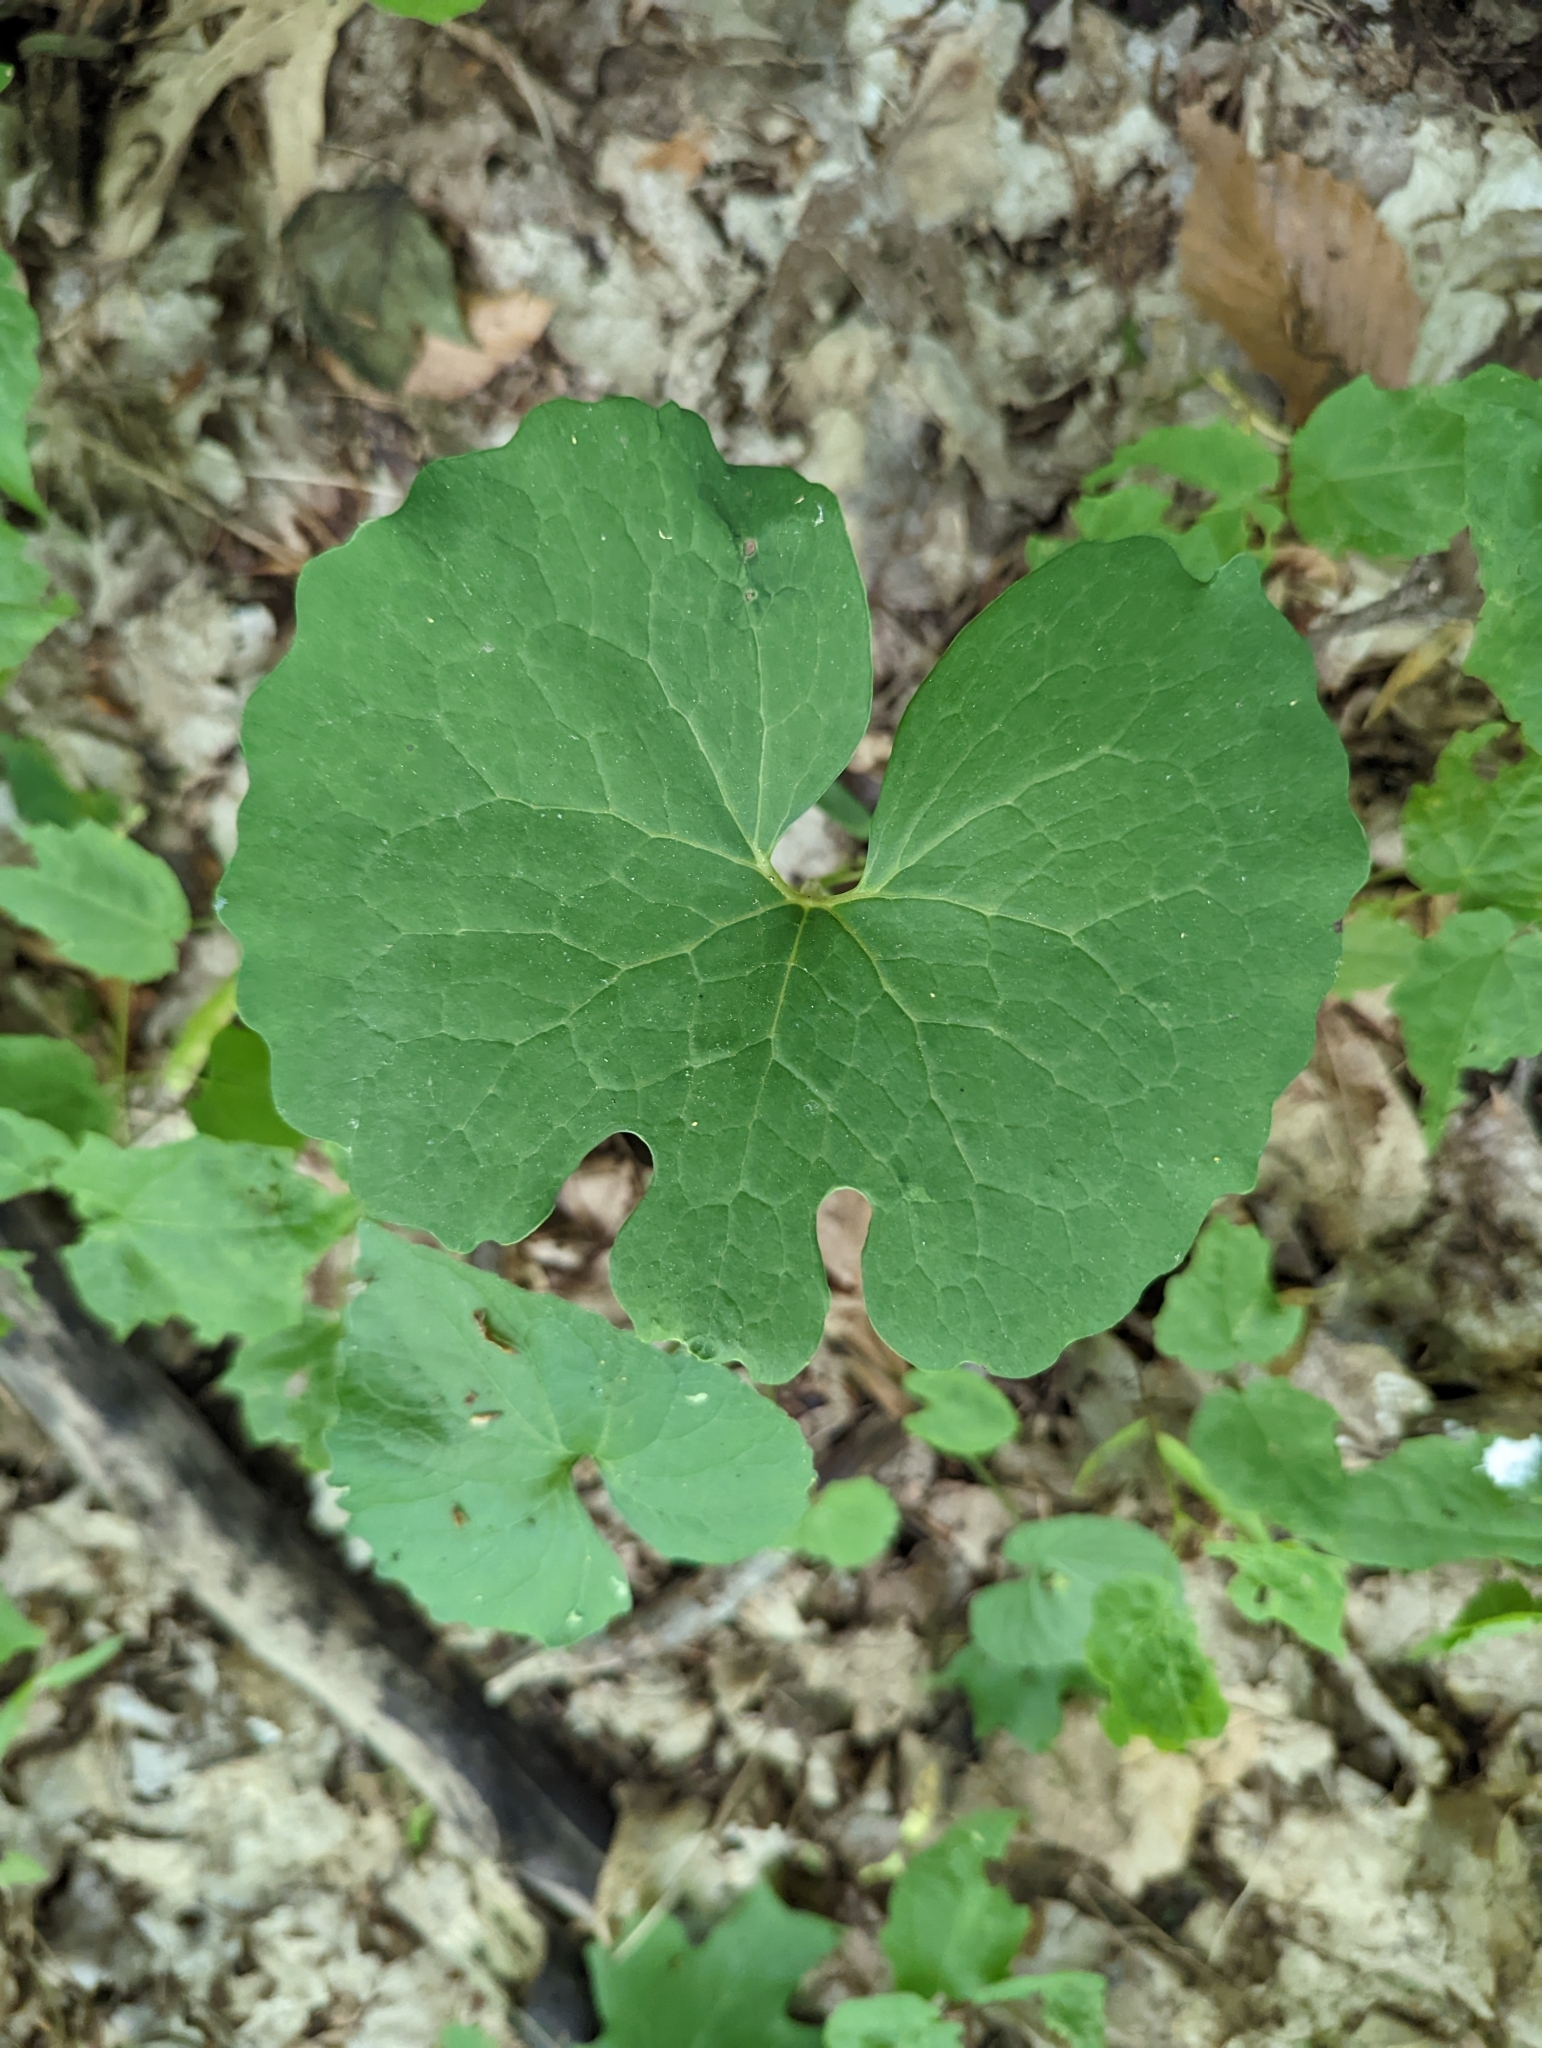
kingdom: Plantae
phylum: Tracheophyta
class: Magnoliopsida
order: Ranunculales
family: Papaveraceae
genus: Sanguinaria
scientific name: Sanguinaria canadensis
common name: Bloodroot
